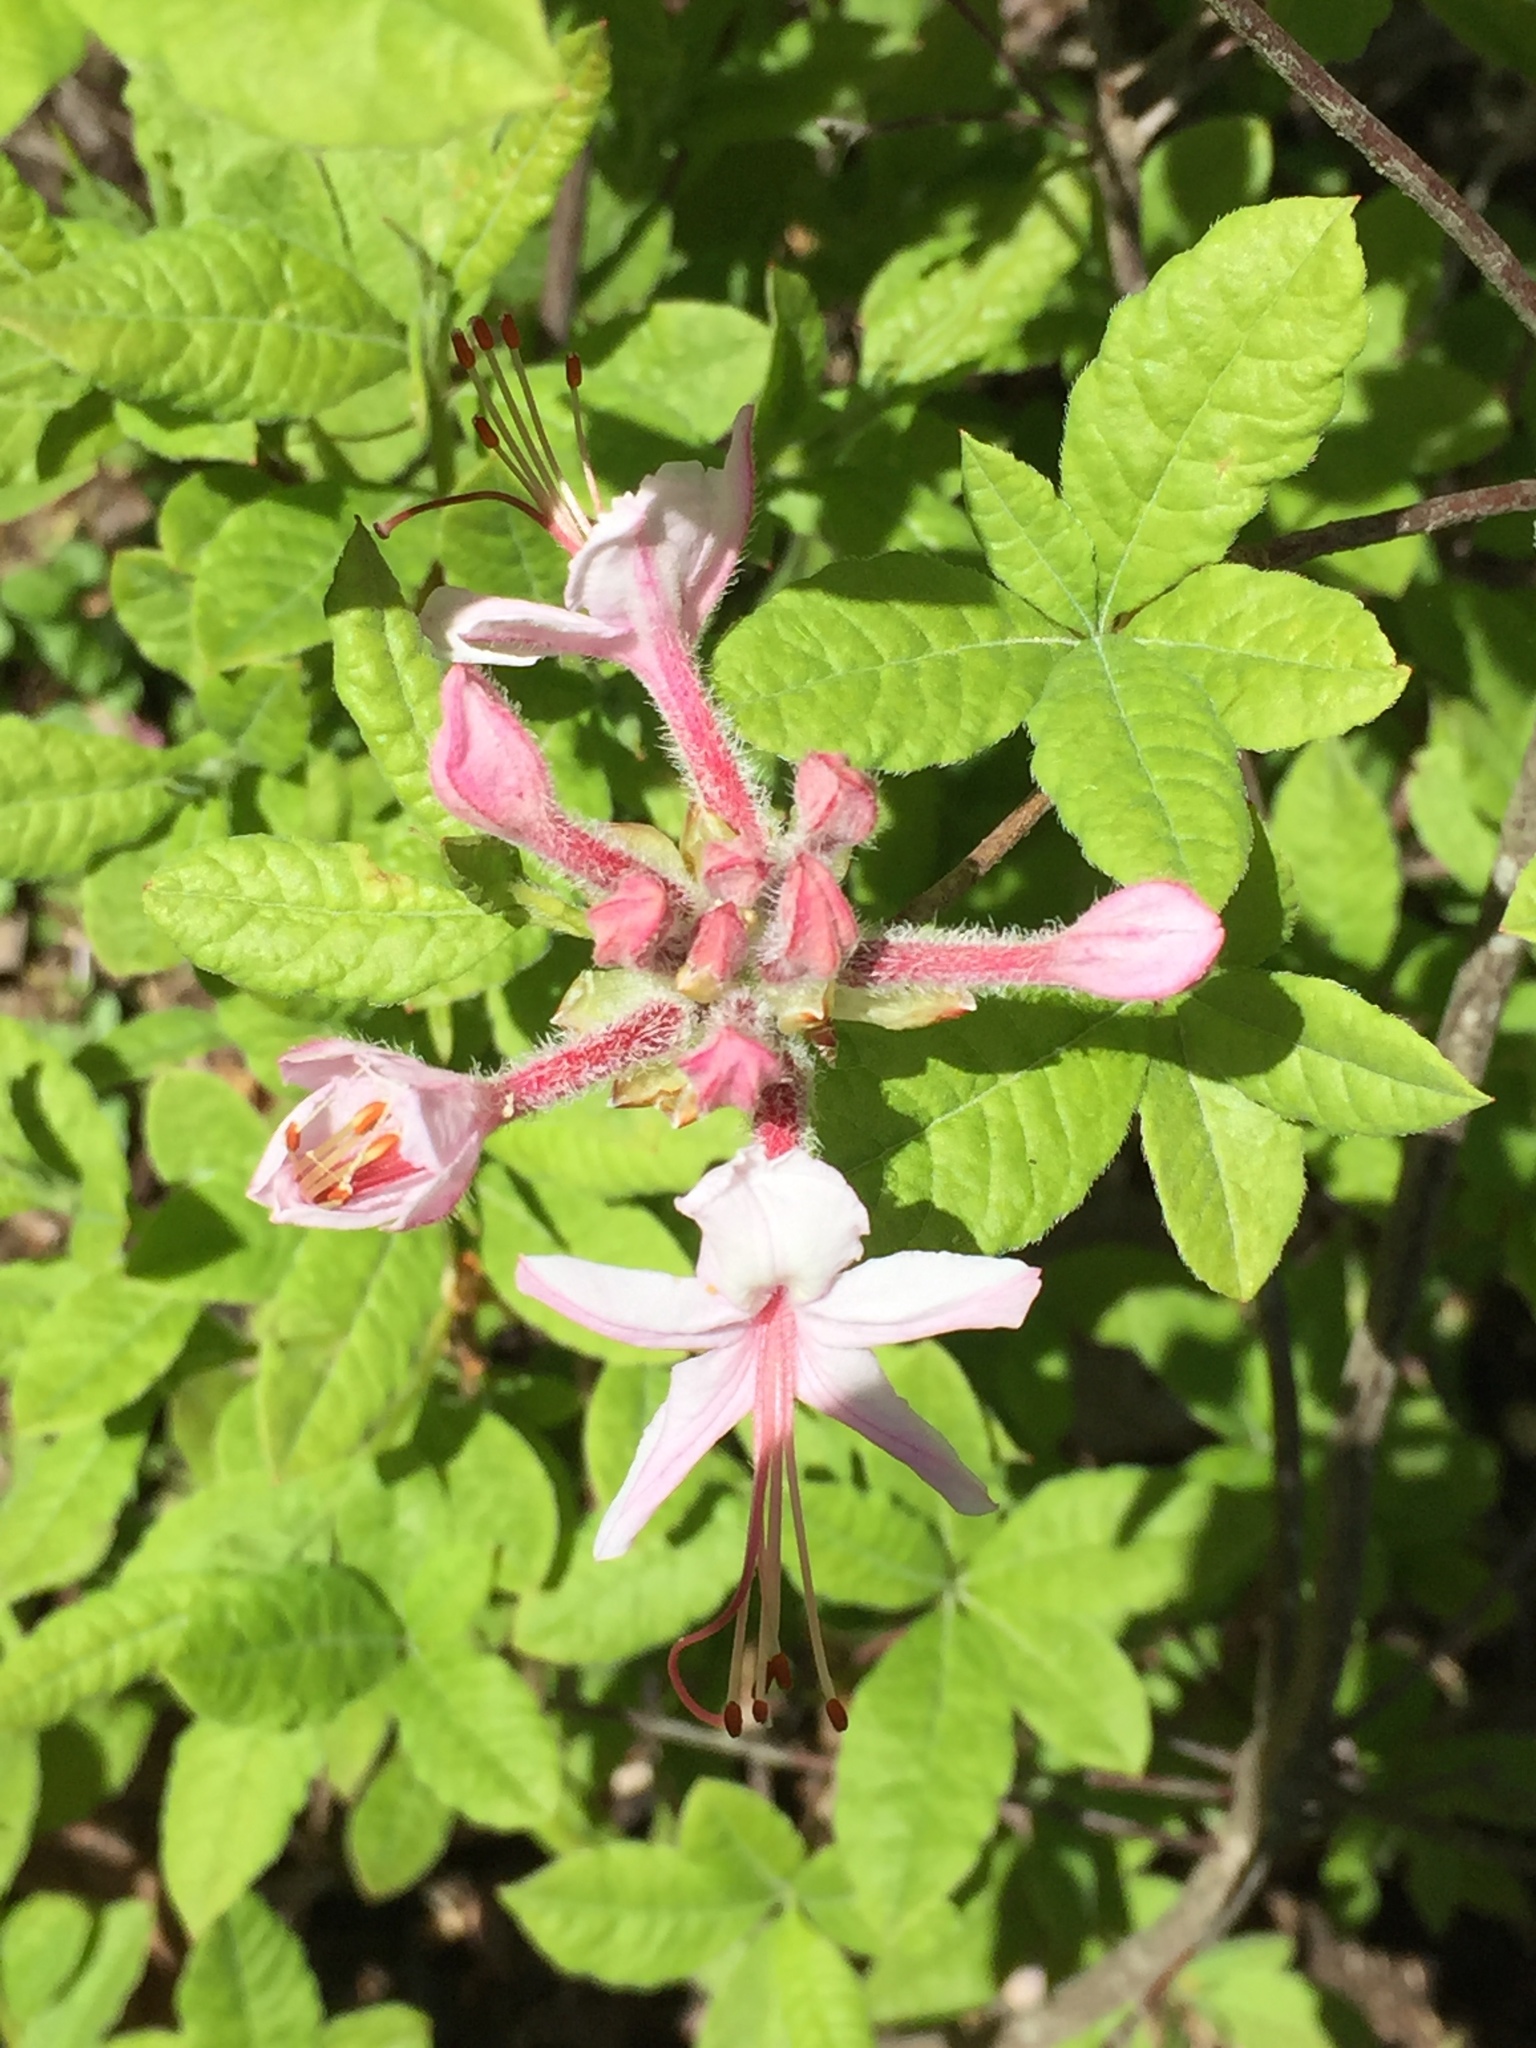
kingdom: Plantae
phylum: Tracheophyta
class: Magnoliopsida
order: Ericales
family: Ericaceae
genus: Rhododendron
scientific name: Rhododendron periclymenoides
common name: Election-pink
